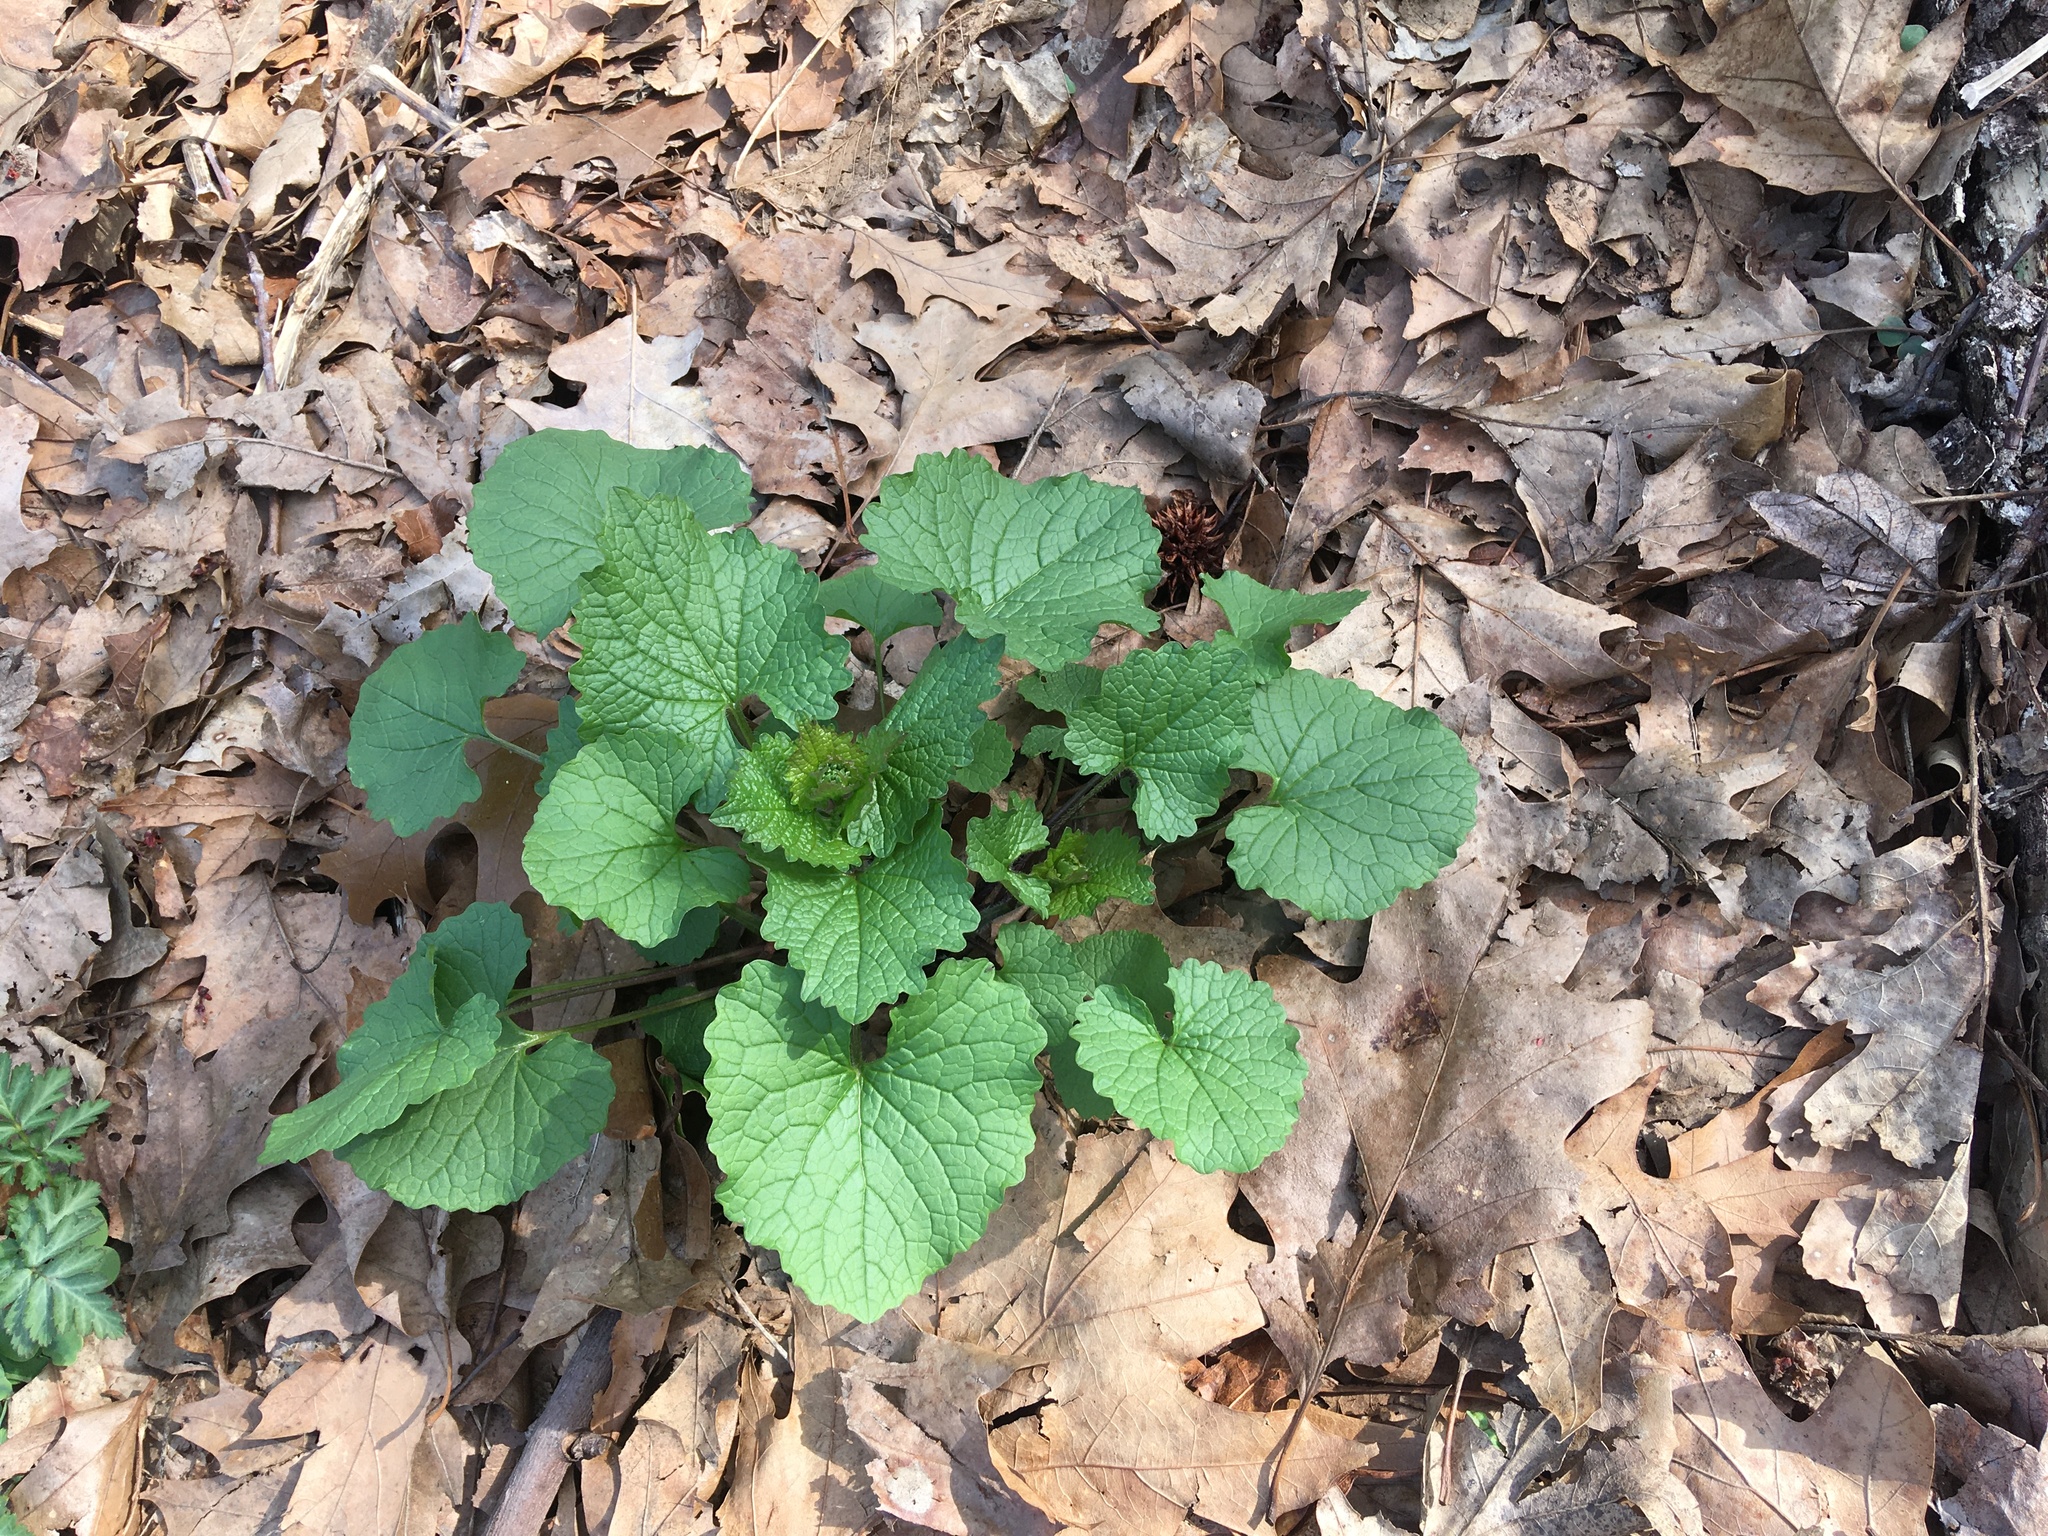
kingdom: Plantae
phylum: Tracheophyta
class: Magnoliopsida
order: Brassicales
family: Brassicaceae
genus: Alliaria
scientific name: Alliaria petiolata
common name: Garlic mustard
